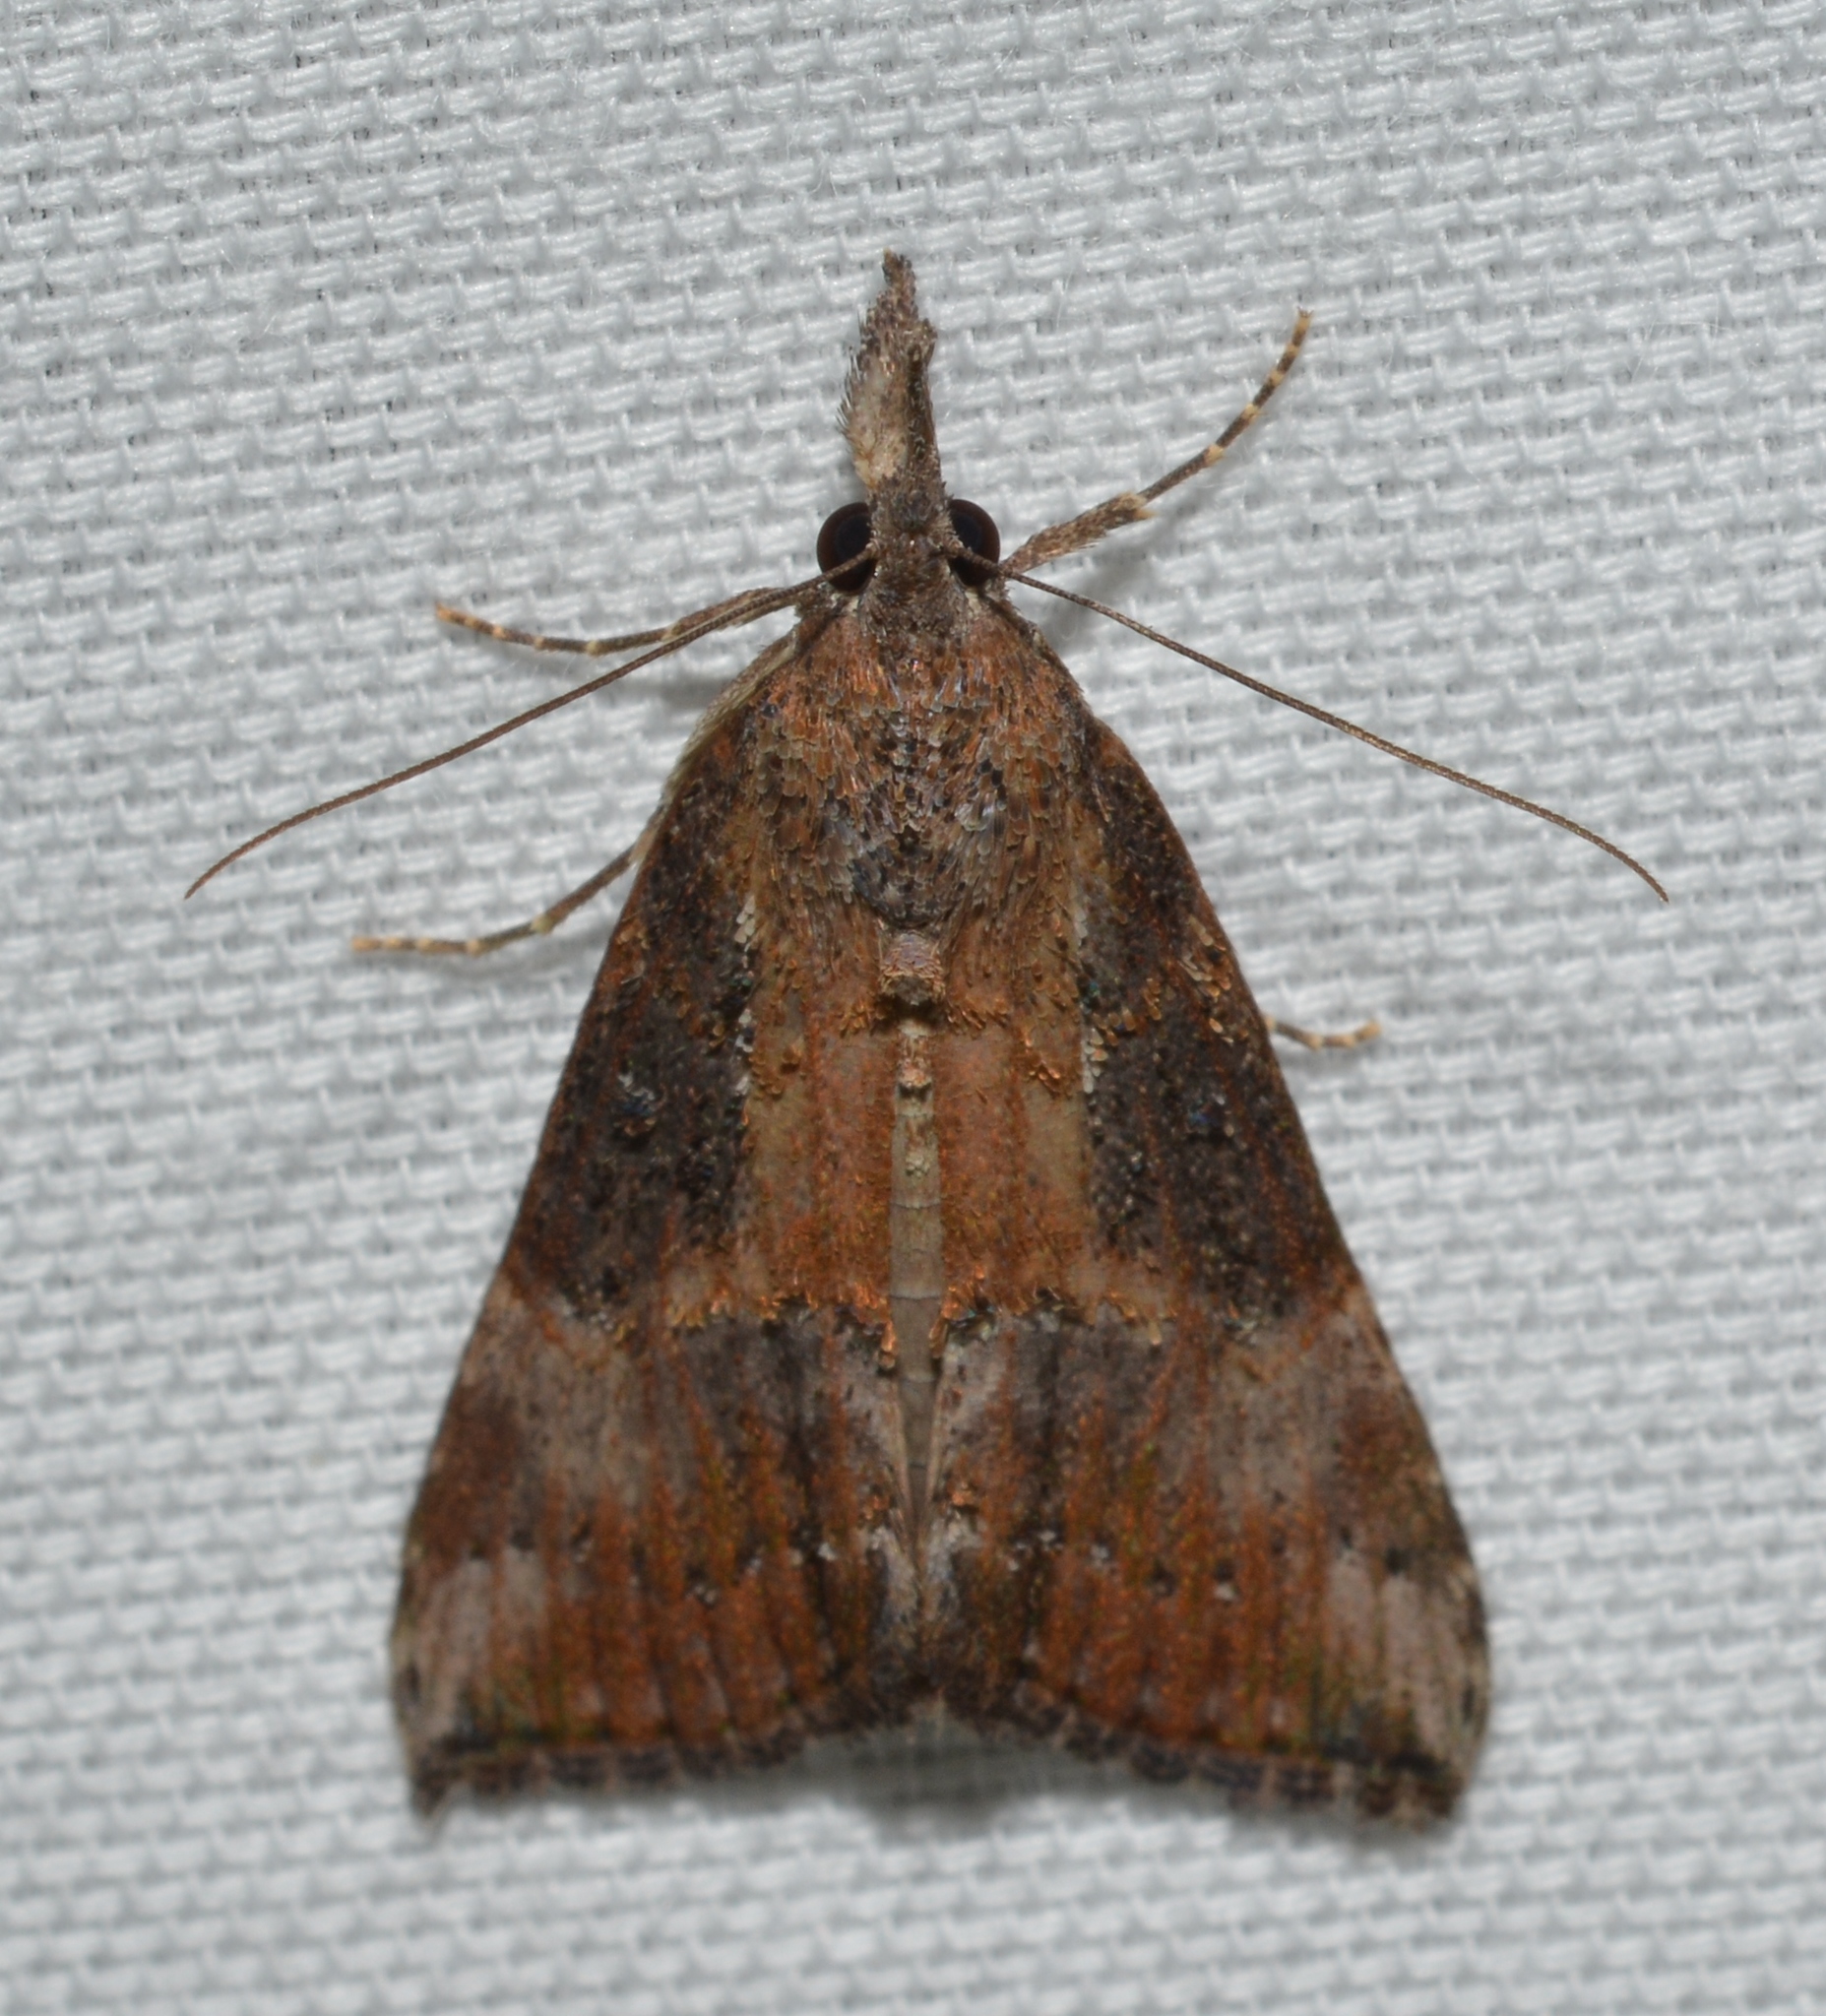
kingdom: Animalia
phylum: Arthropoda
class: Insecta
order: Lepidoptera
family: Erebidae
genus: Hypena
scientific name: Hypena scabra
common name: Green cloverworm
